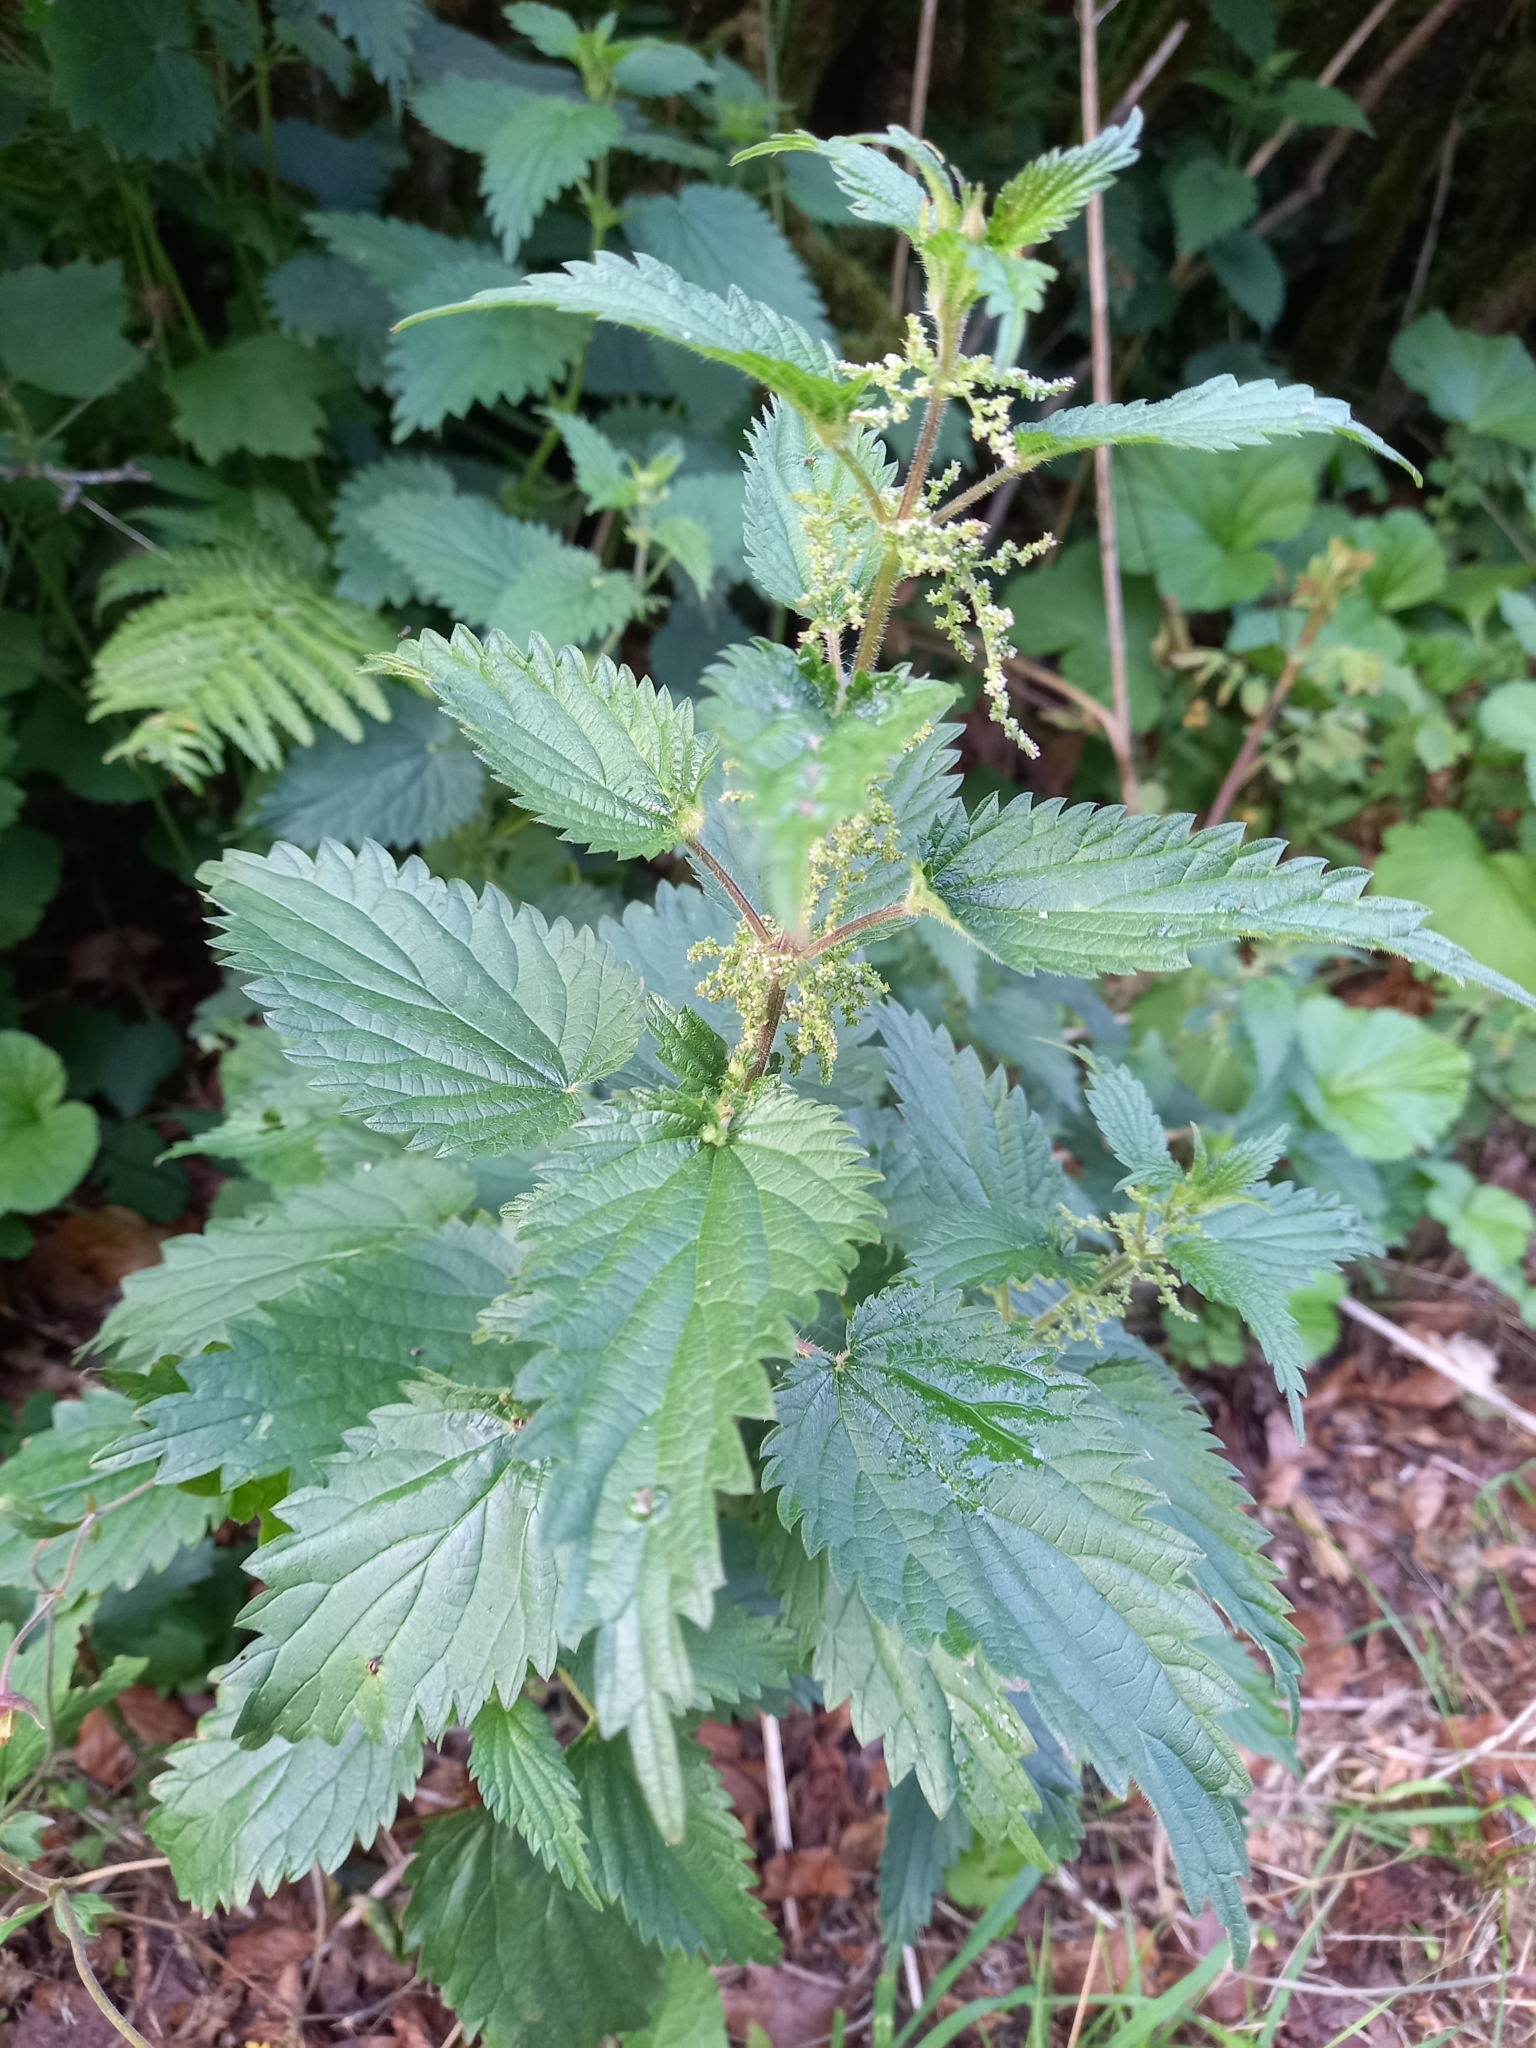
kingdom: Plantae
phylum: Tracheophyta
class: Magnoliopsida
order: Rosales
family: Urticaceae
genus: Urtica
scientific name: Urtica dioica
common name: Common nettle
